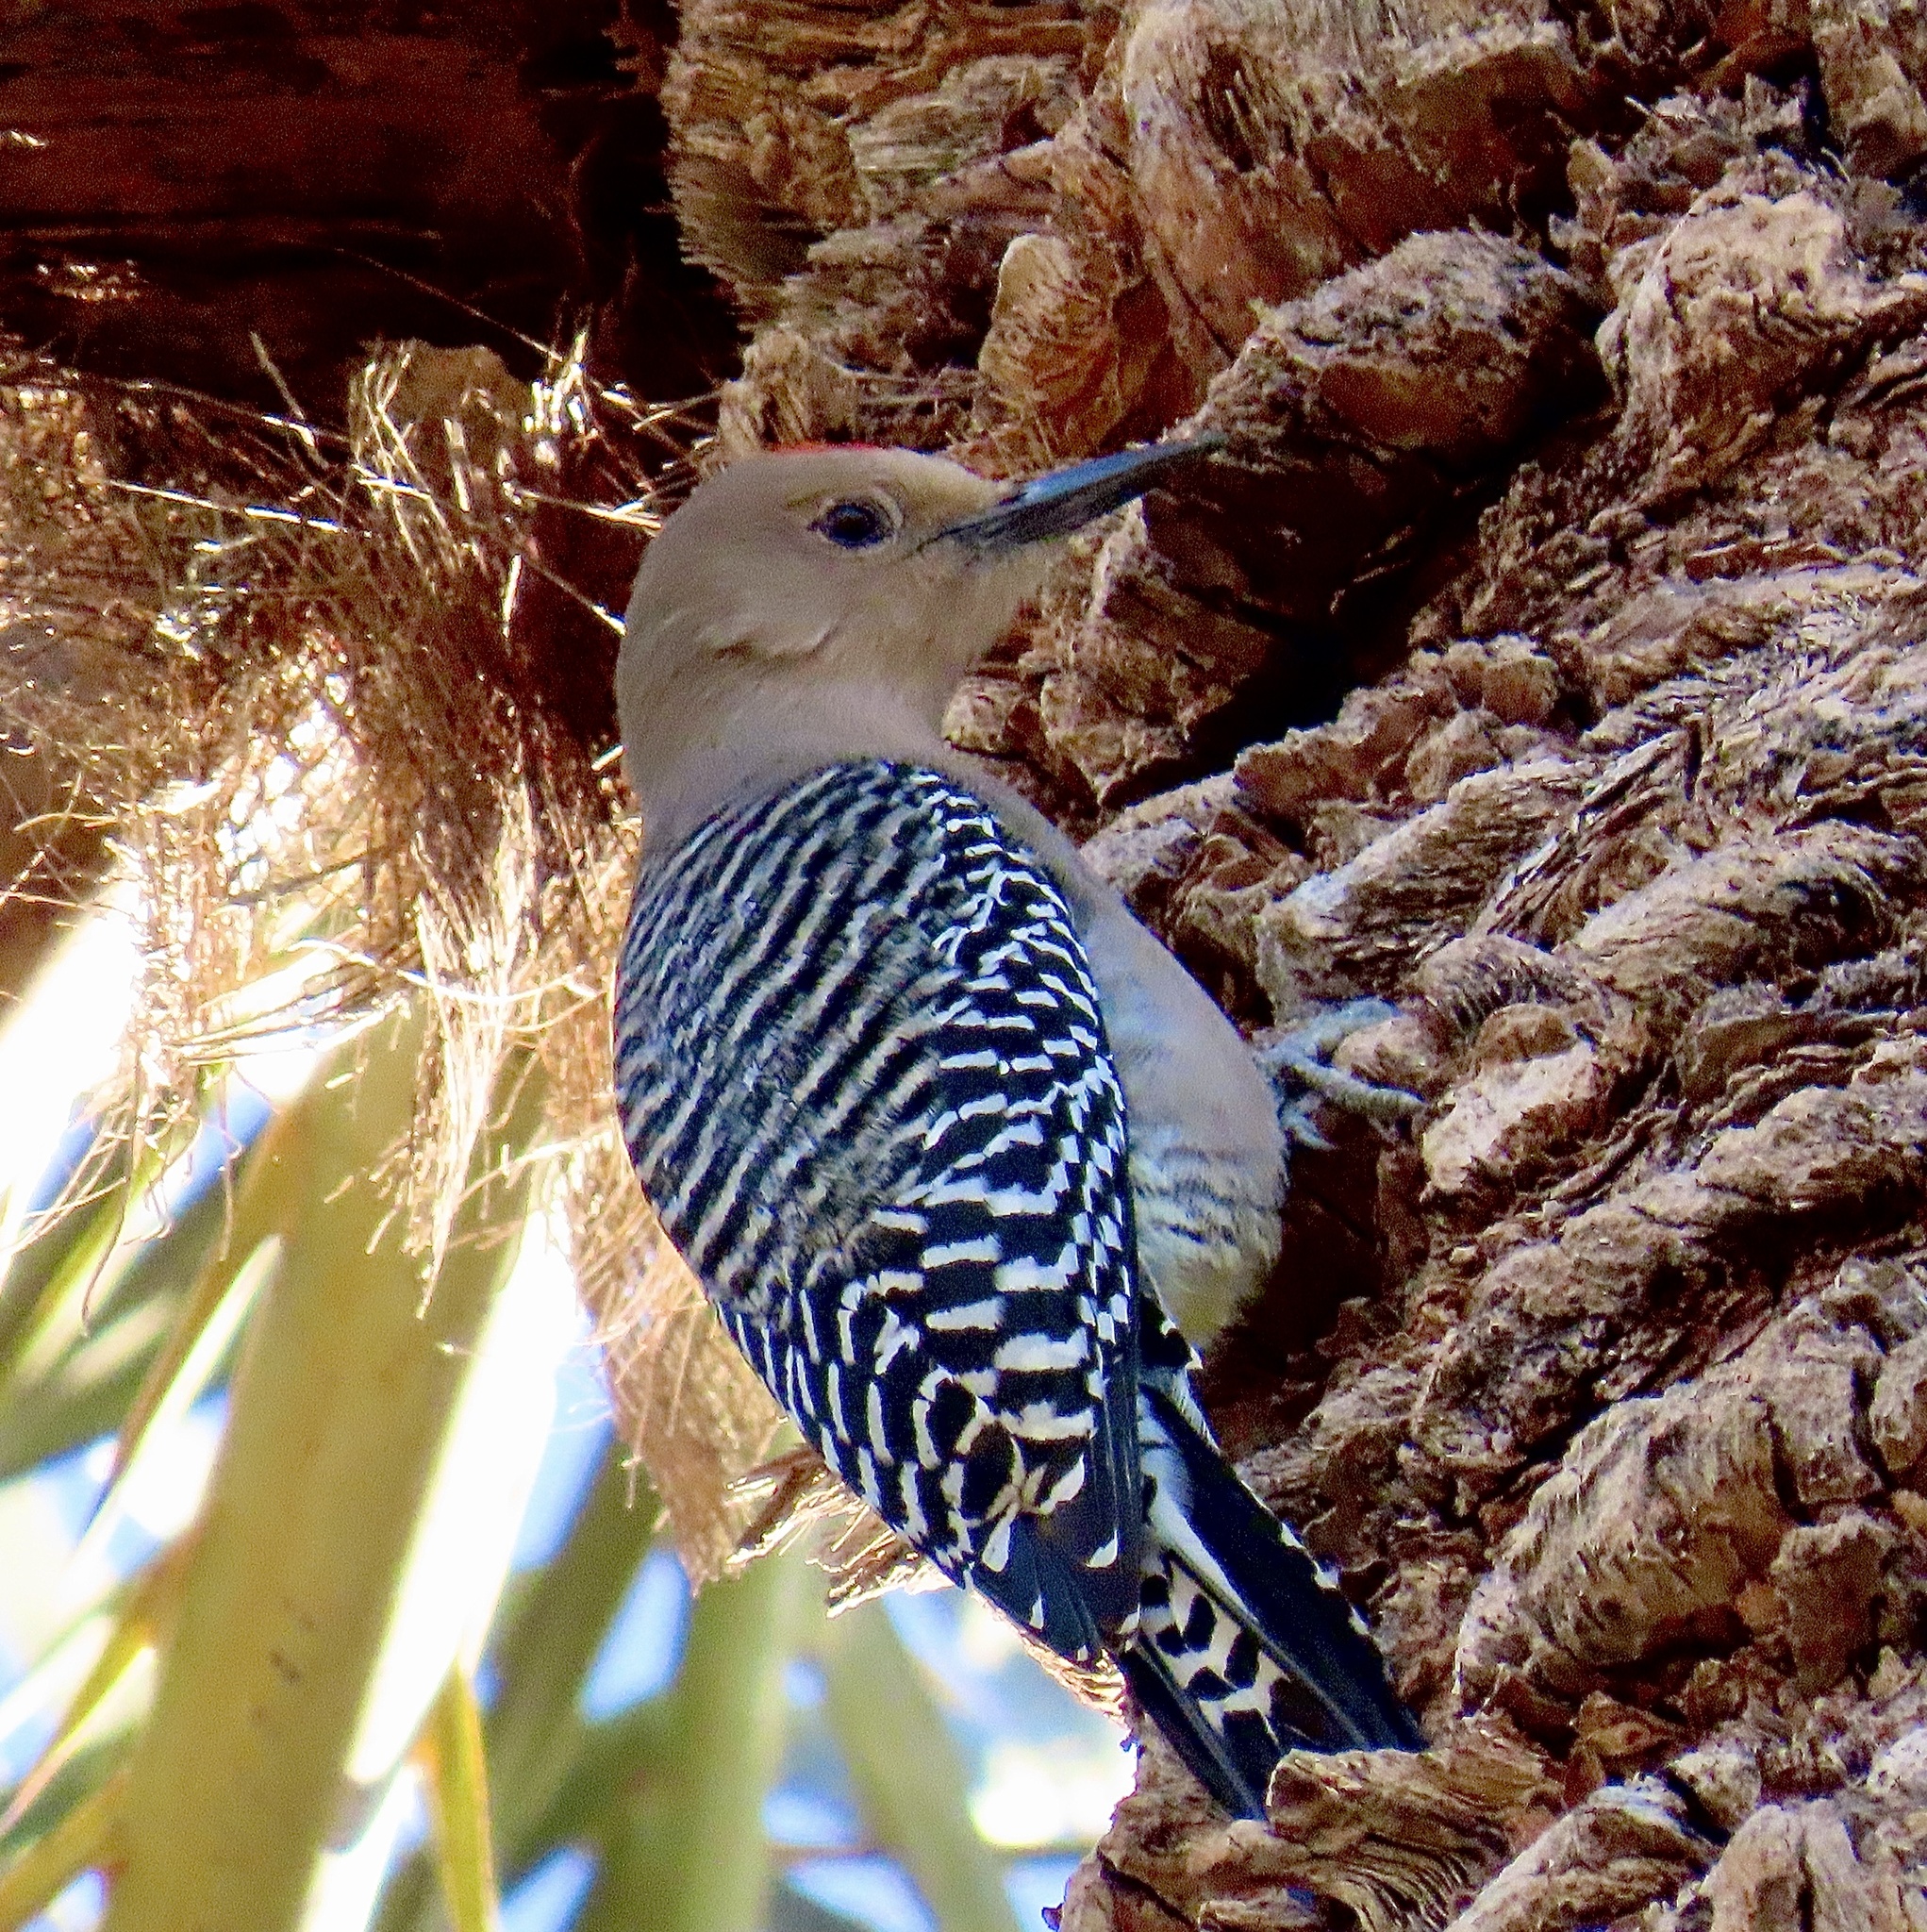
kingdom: Animalia
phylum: Chordata
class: Aves
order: Piciformes
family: Picidae
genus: Melanerpes
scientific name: Melanerpes uropygialis
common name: Gila woodpecker
